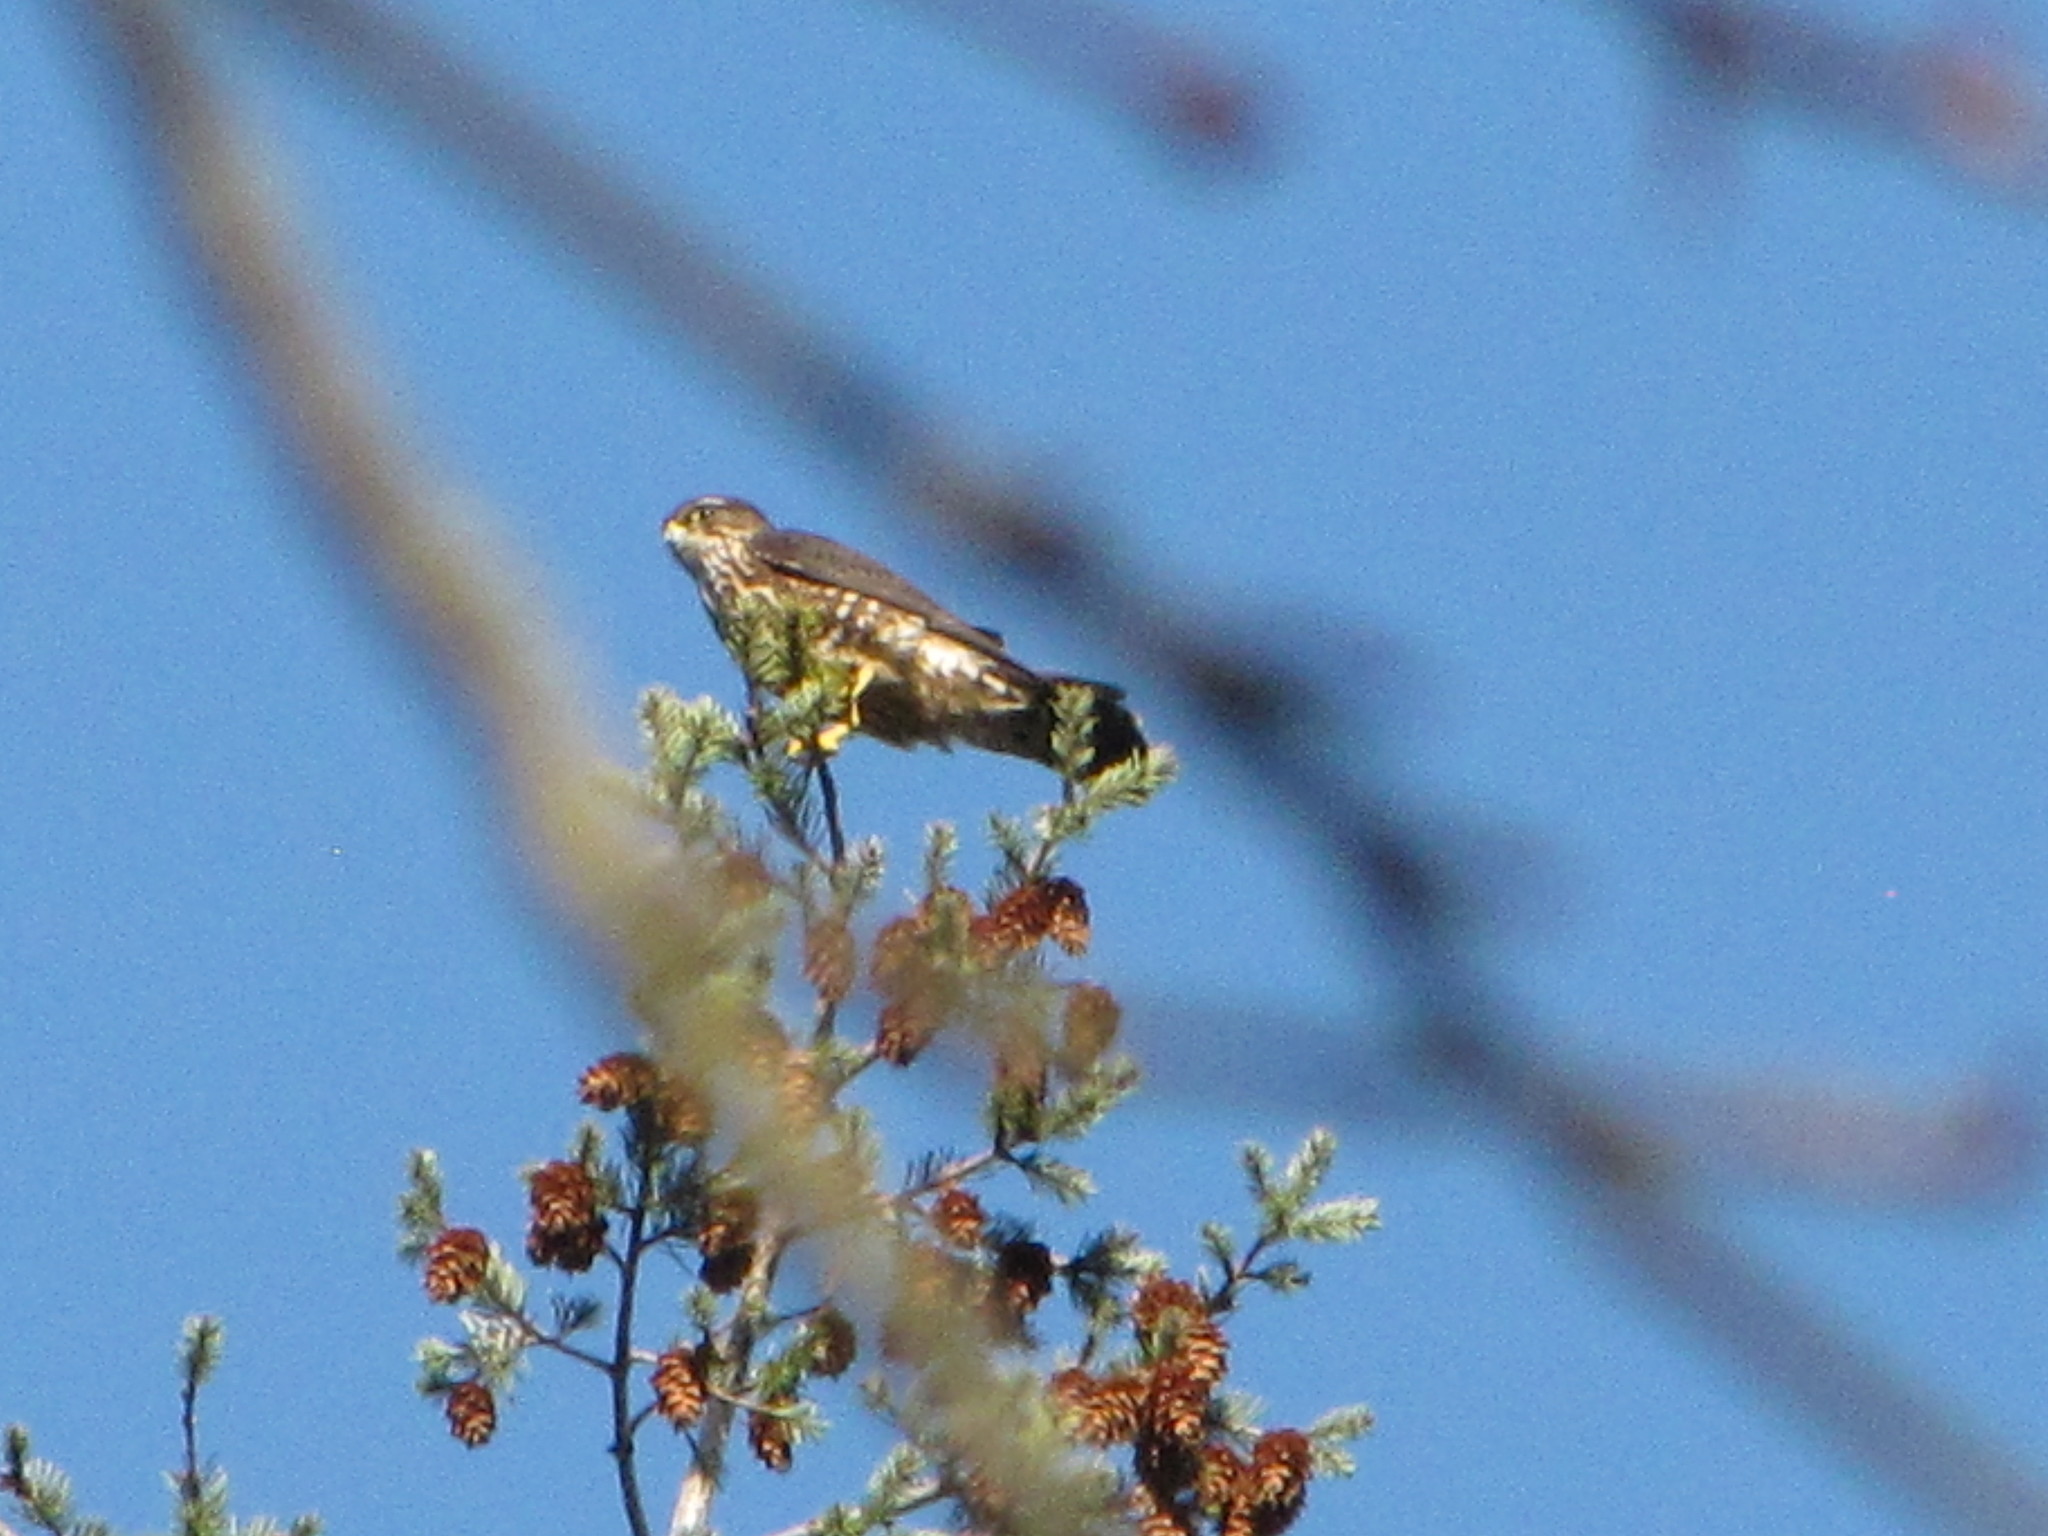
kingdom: Animalia
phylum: Chordata
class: Aves
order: Falconiformes
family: Falconidae
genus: Falco
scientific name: Falco columbarius
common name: Merlin
